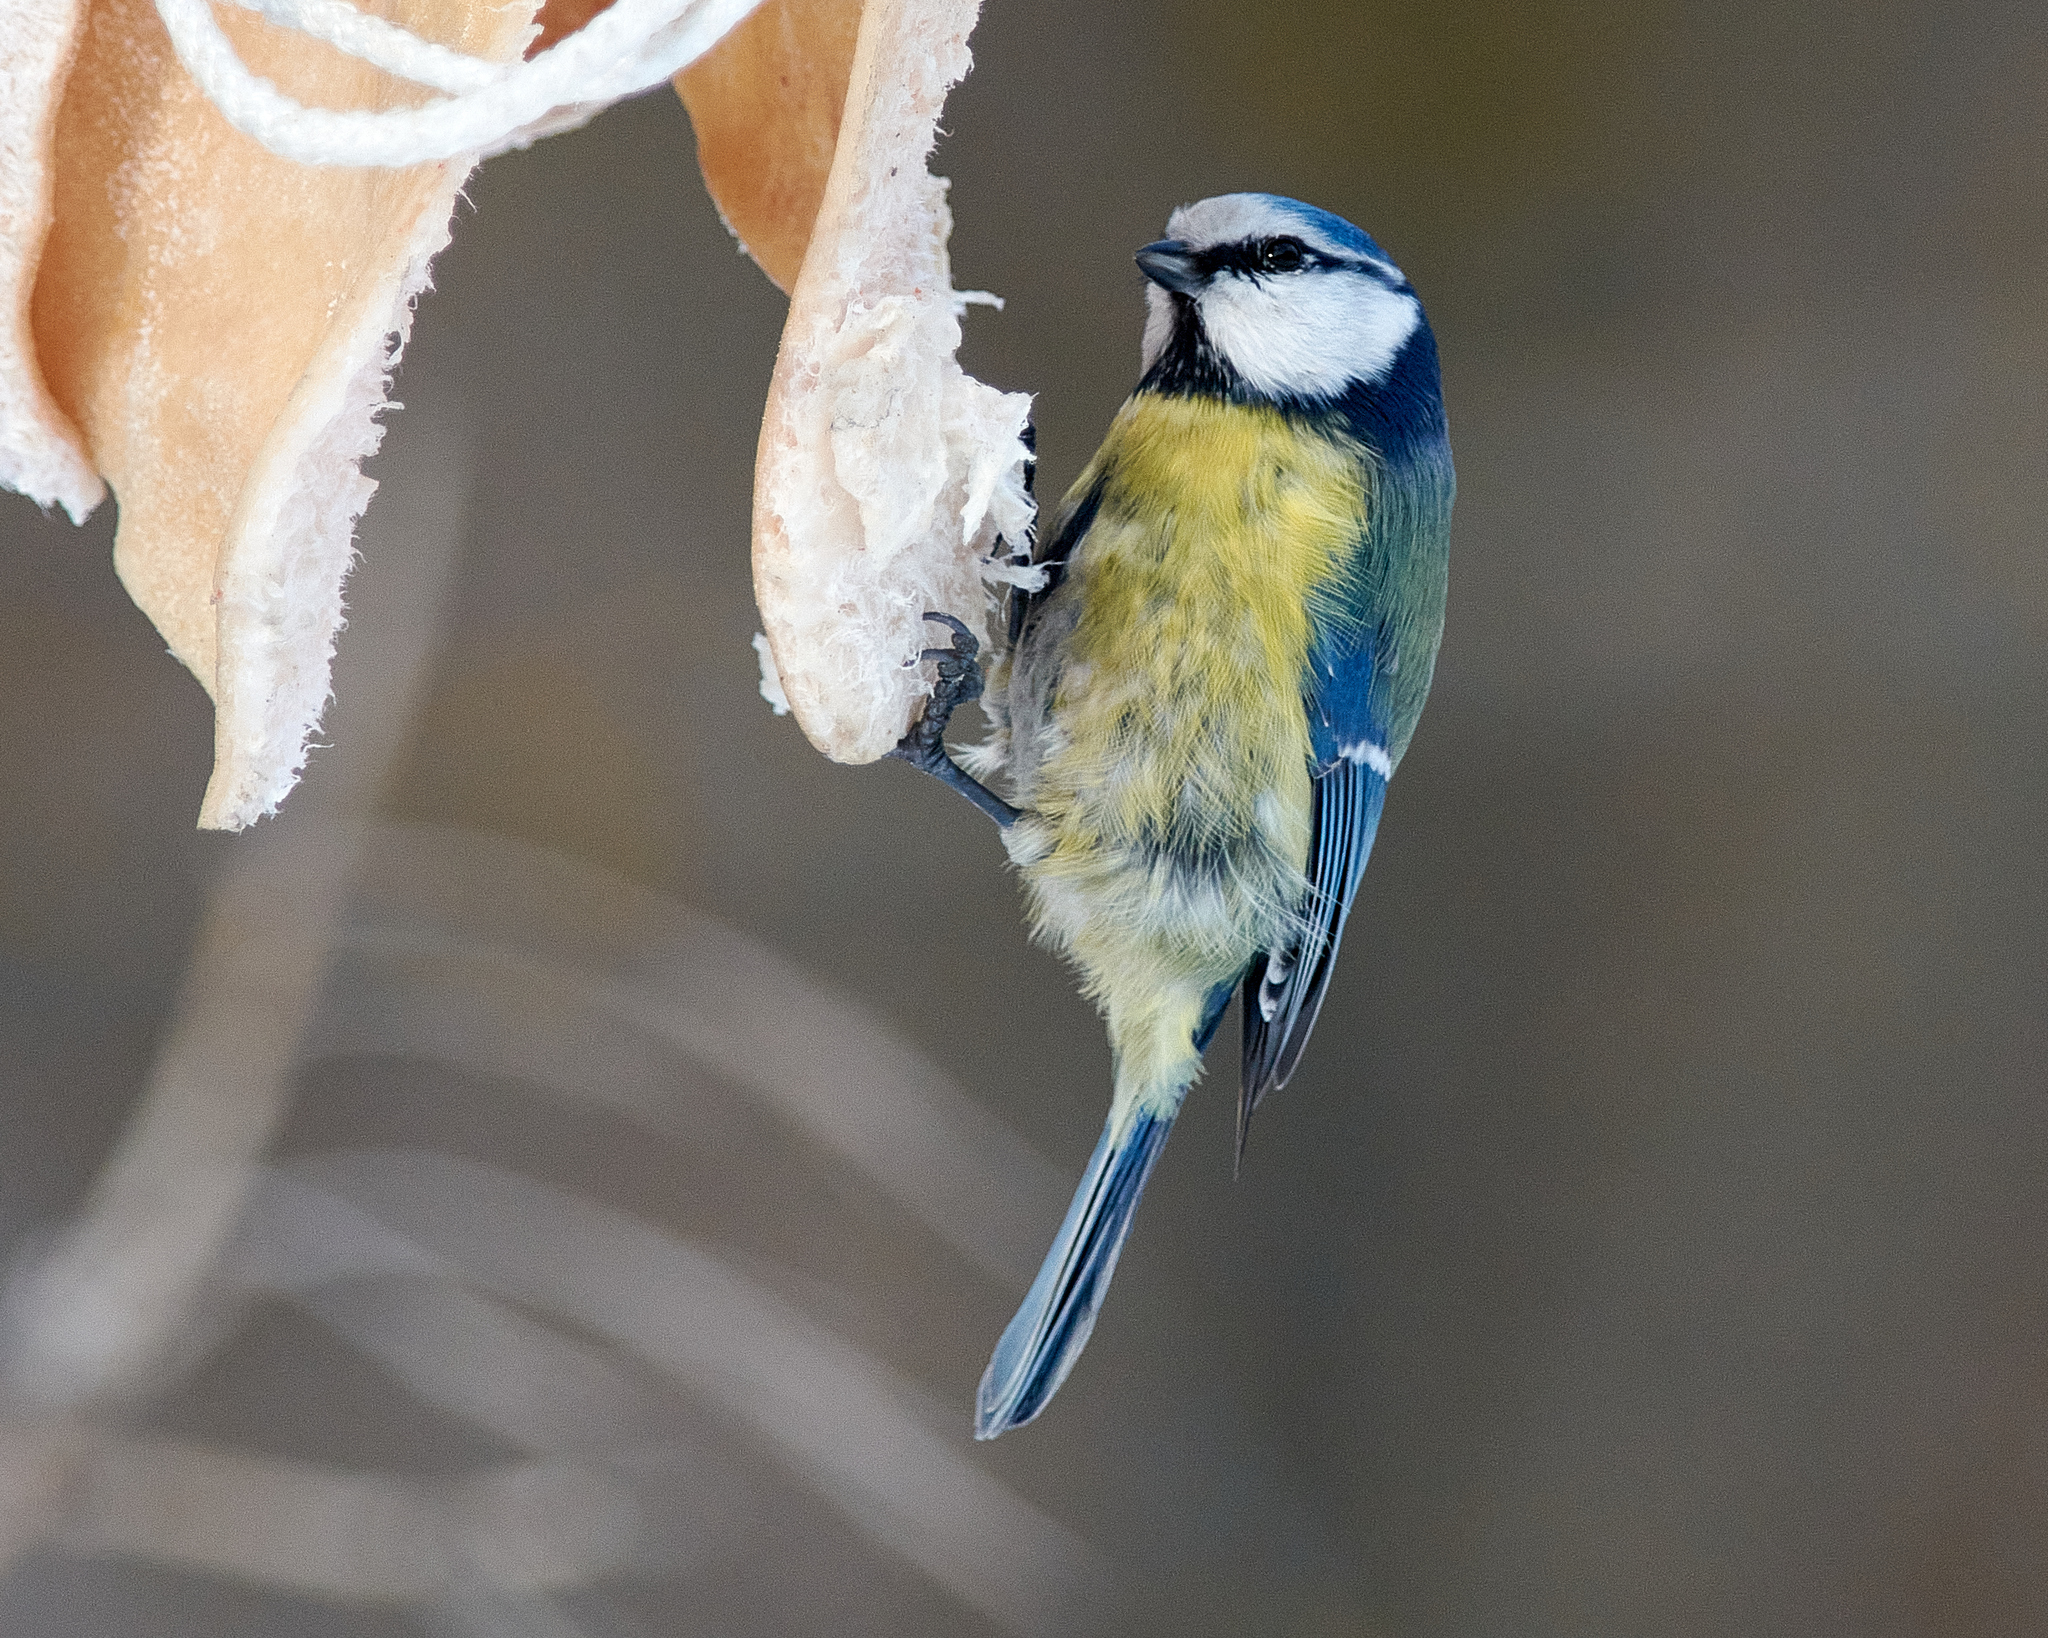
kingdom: Animalia
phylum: Chordata
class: Aves
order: Passeriformes
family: Paridae
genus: Cyanistes
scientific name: Cyanistes caeruleus
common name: Eurasian blue tit
